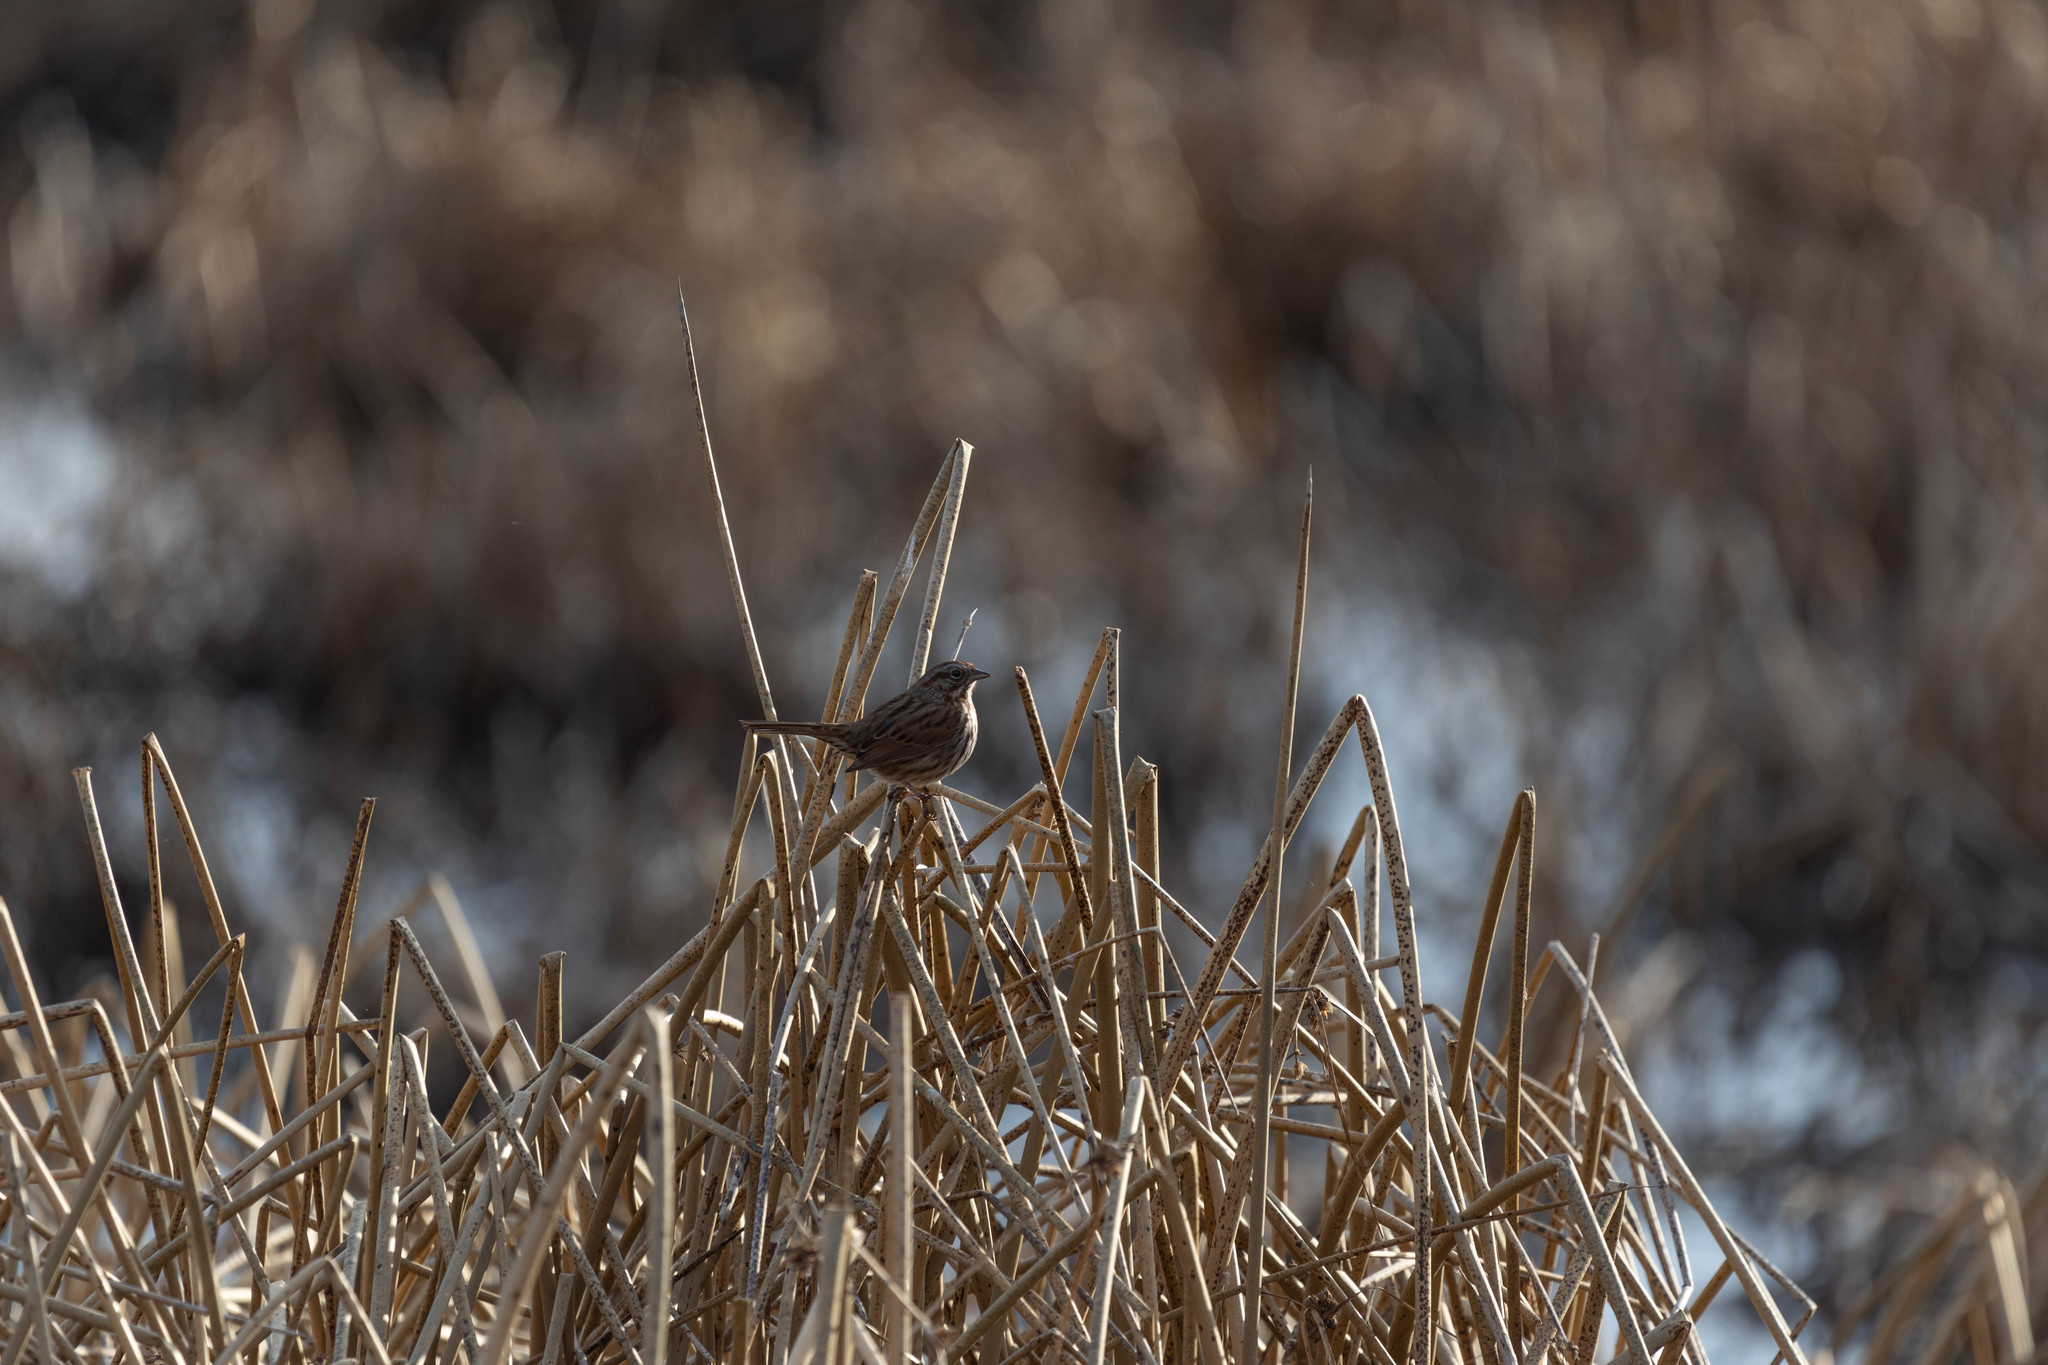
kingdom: Animalia
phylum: Chordata
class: Aves
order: Passeriformes
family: Passerellidae
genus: Melospiza
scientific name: Melospiza melodia
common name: Song sparrow
